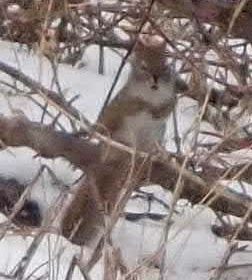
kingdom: Animalia
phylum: Chordata
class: Mammalia
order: Rodentia
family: Sciuridae
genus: Tamiasciurus
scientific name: Tamiasciurus hudsonicus
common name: Red squirrel
